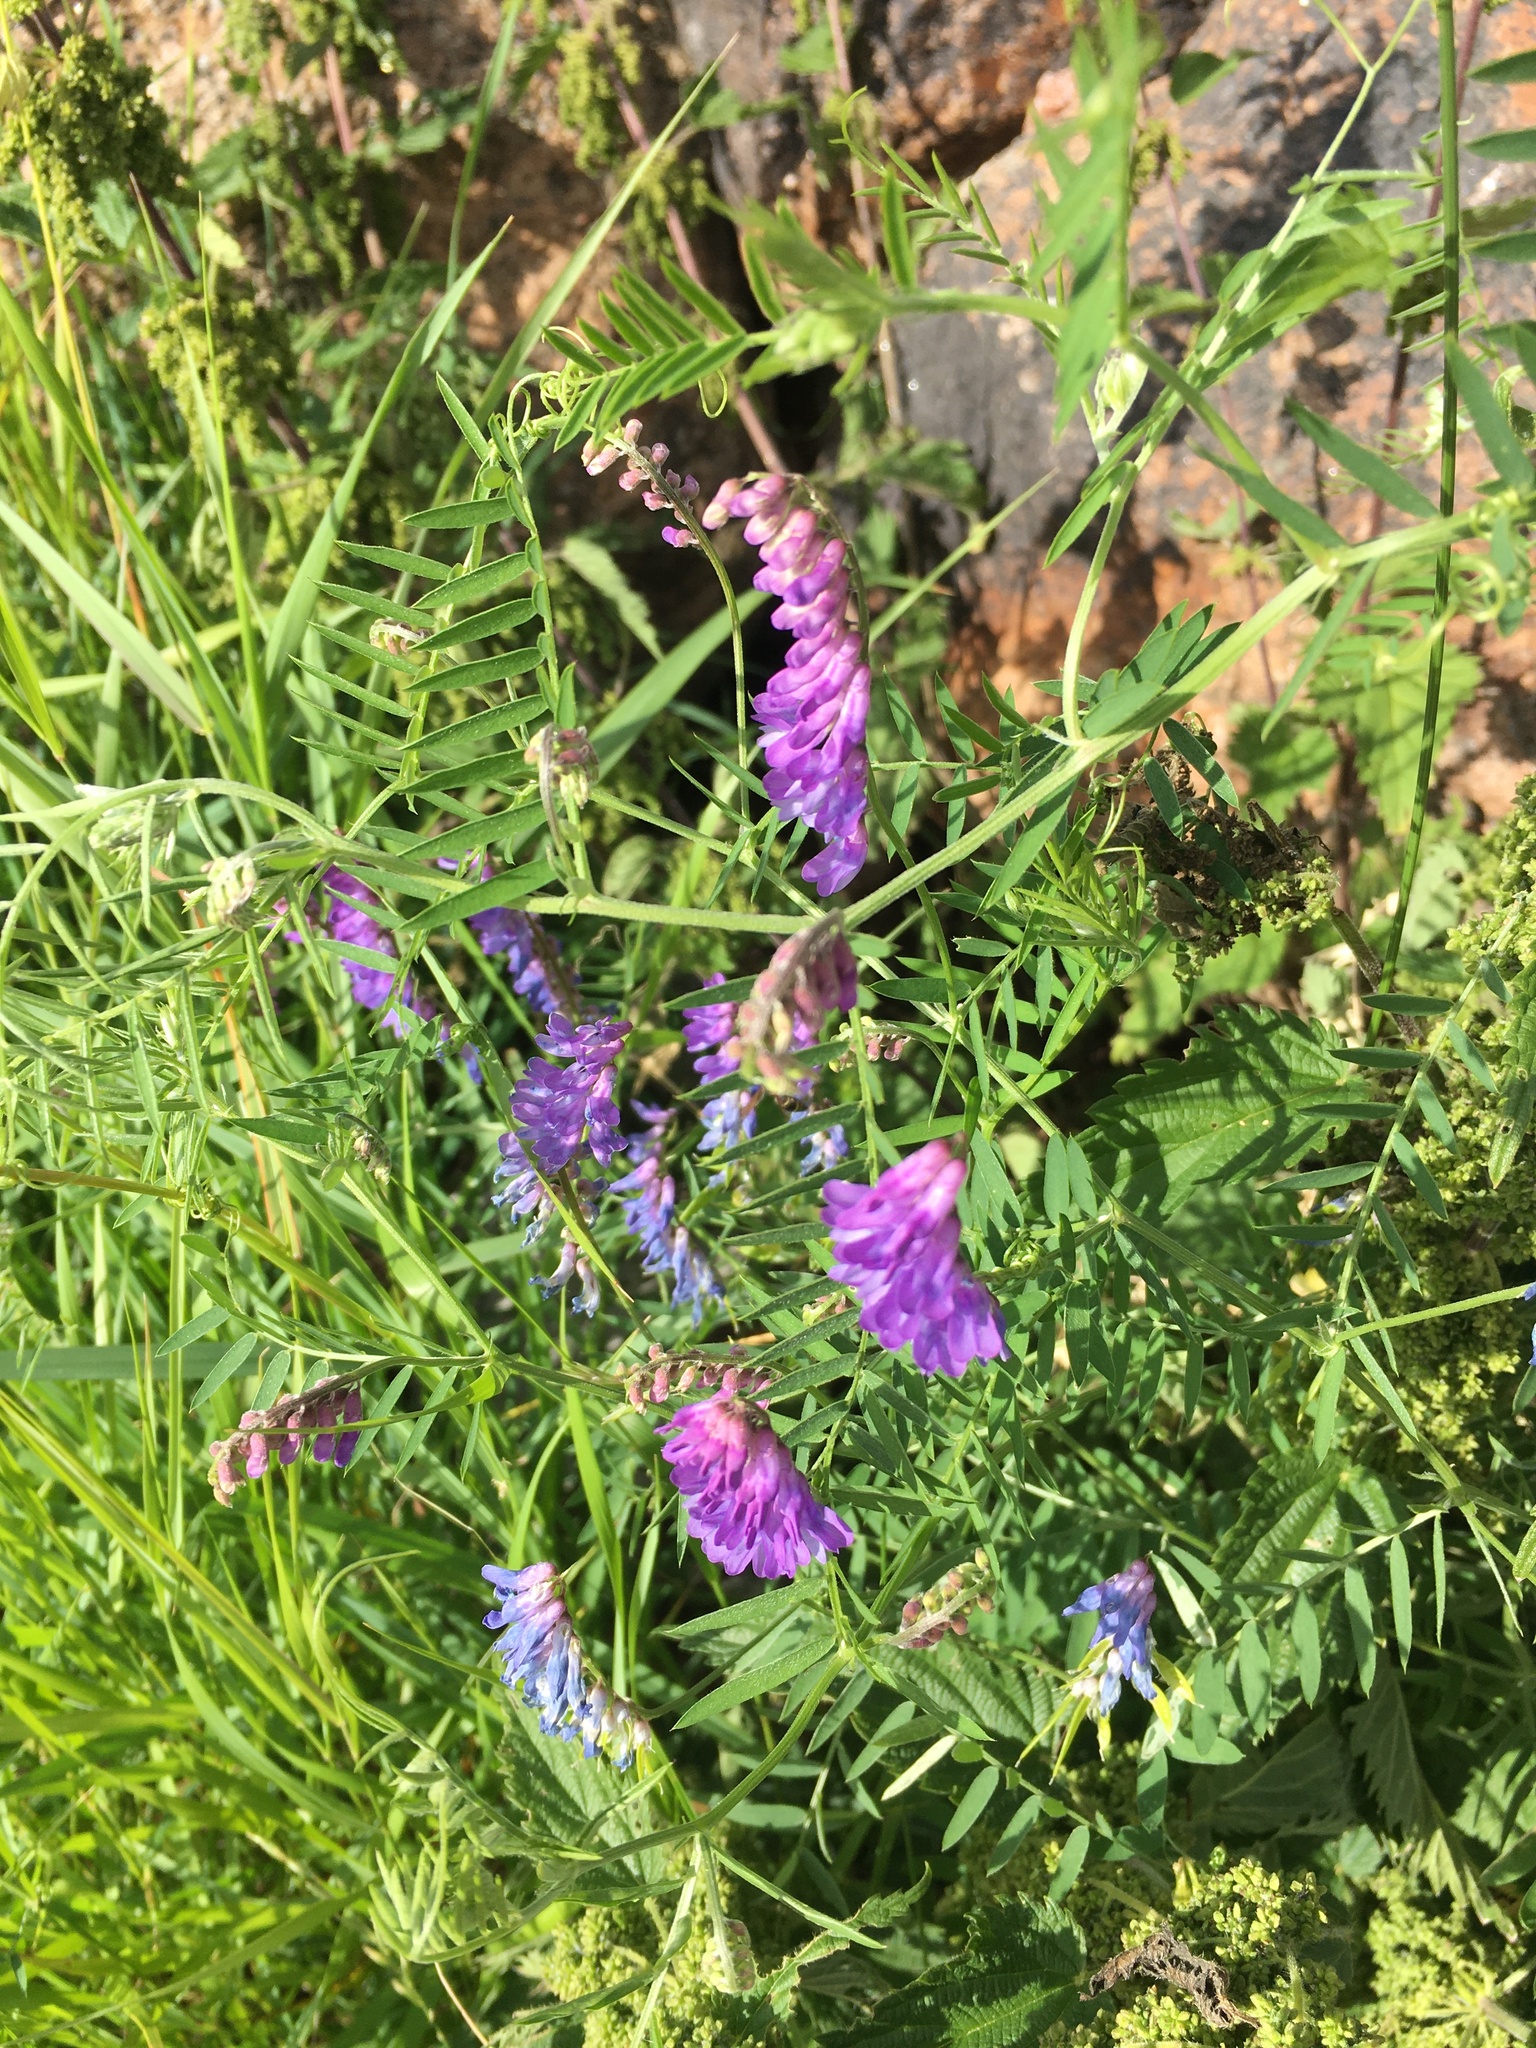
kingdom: Plantae
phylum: Tracheophyta
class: Magnoliopsida
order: Fabales
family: Fabaceae
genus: Vicia
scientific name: Vicia cracca
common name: Bird vetch
